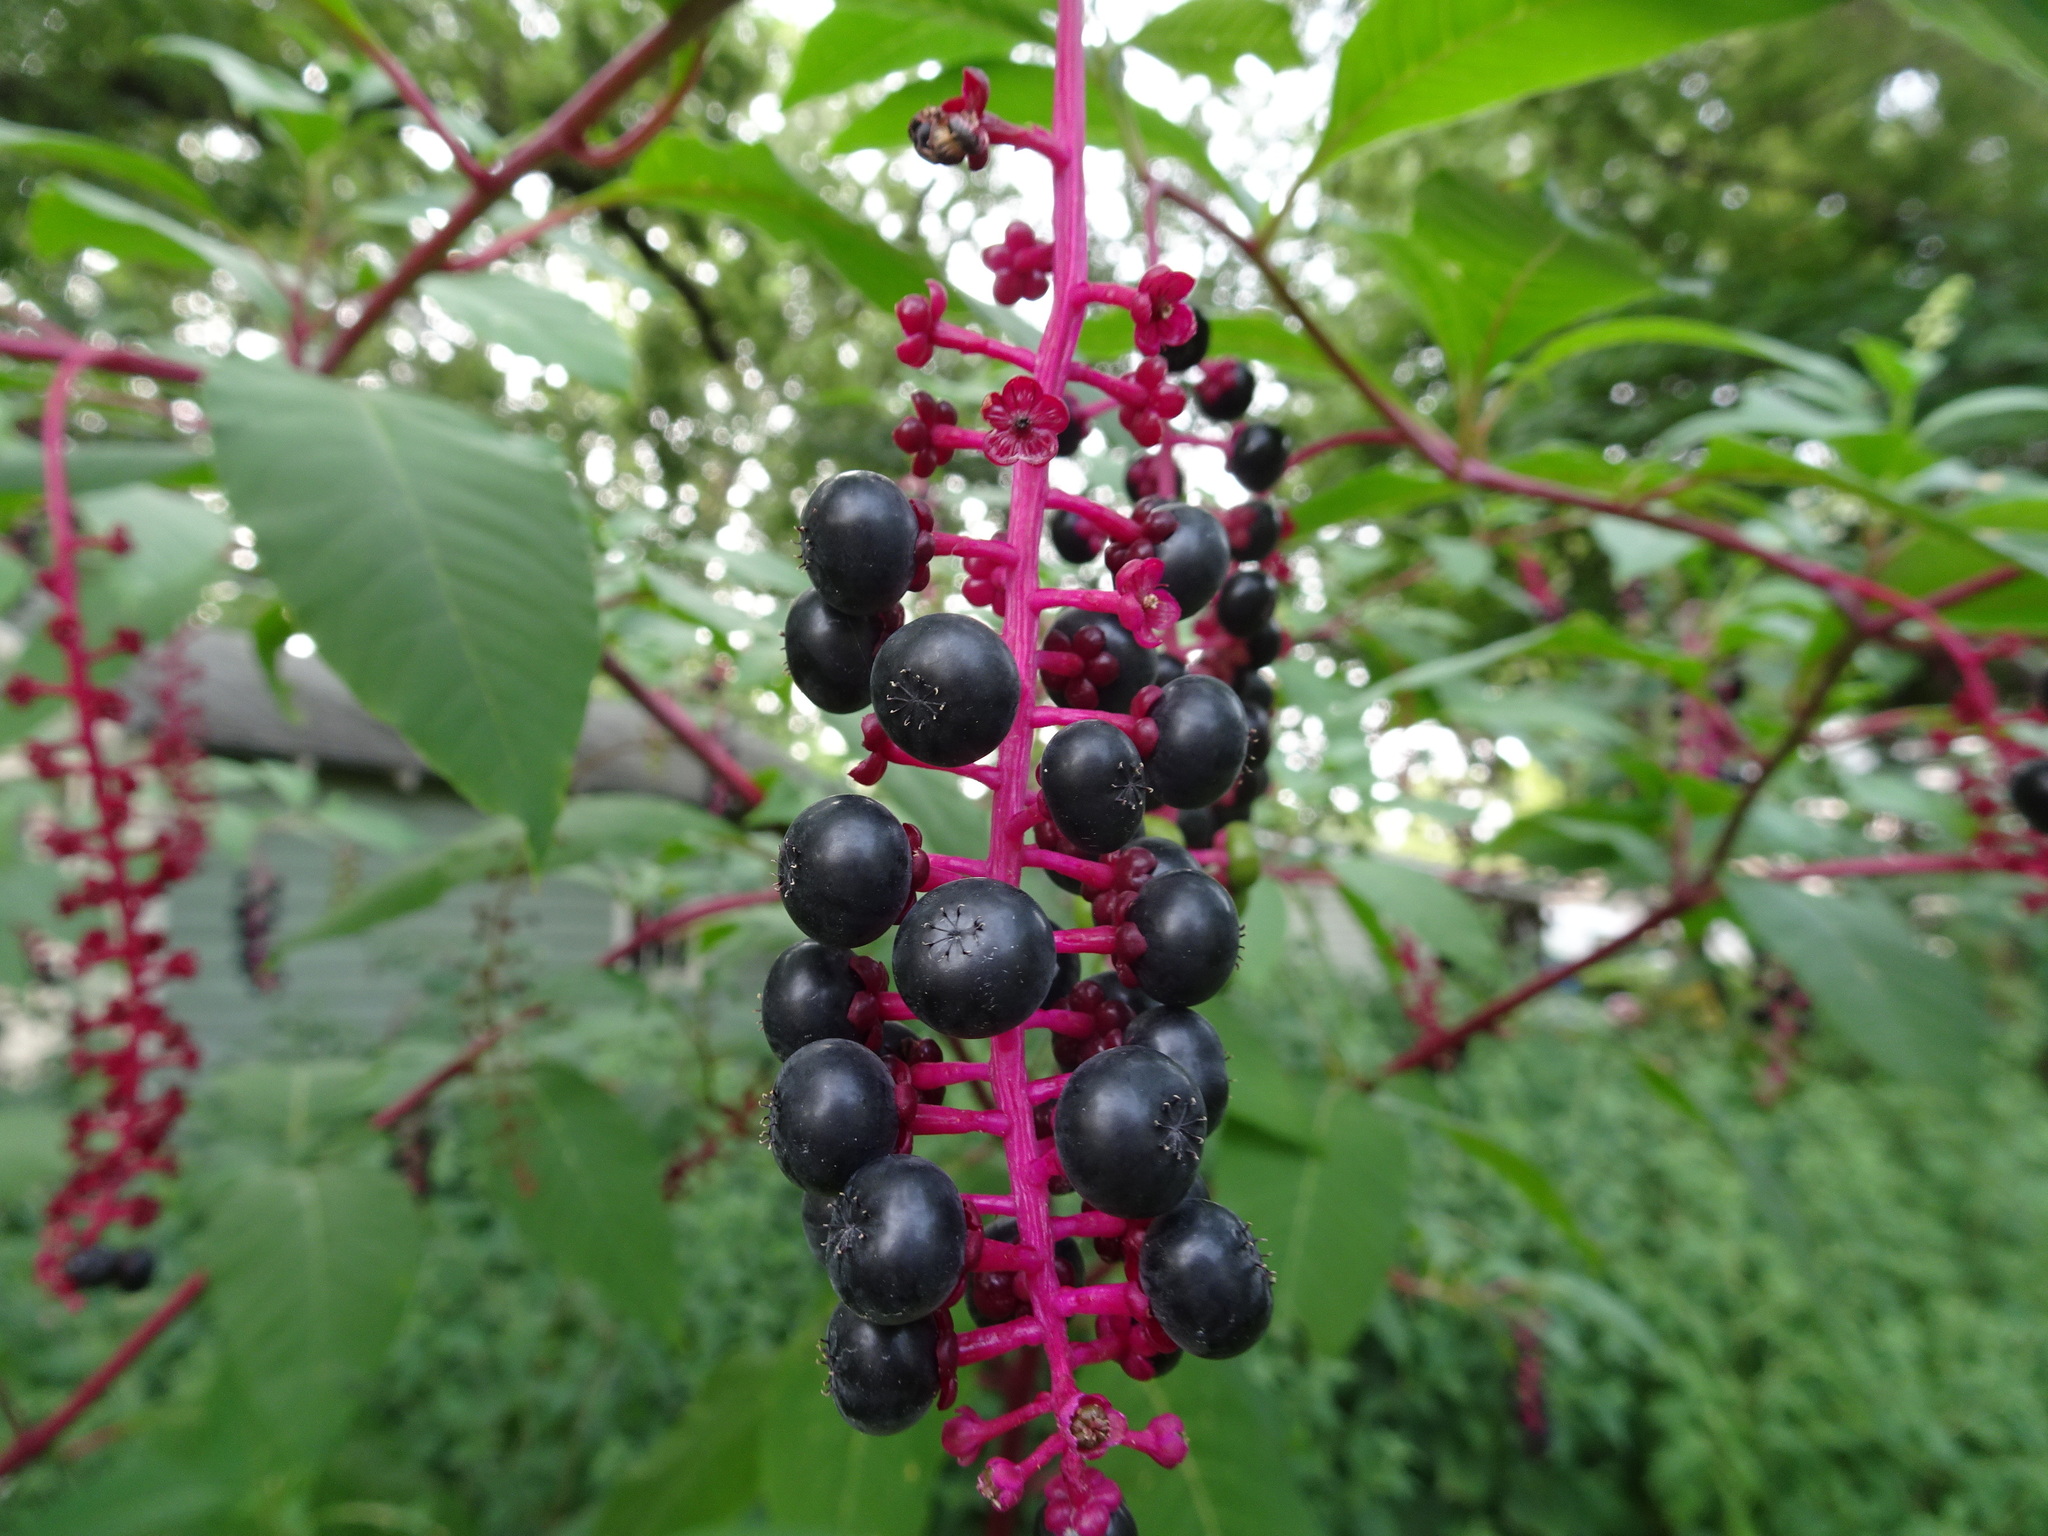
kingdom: Plantae
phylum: Tracheophyta
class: Magnoliopsida
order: Caryophyllales
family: Phytolaccaceae
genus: Phytolacca
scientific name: Phytolacca americana
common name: American pokeweed
